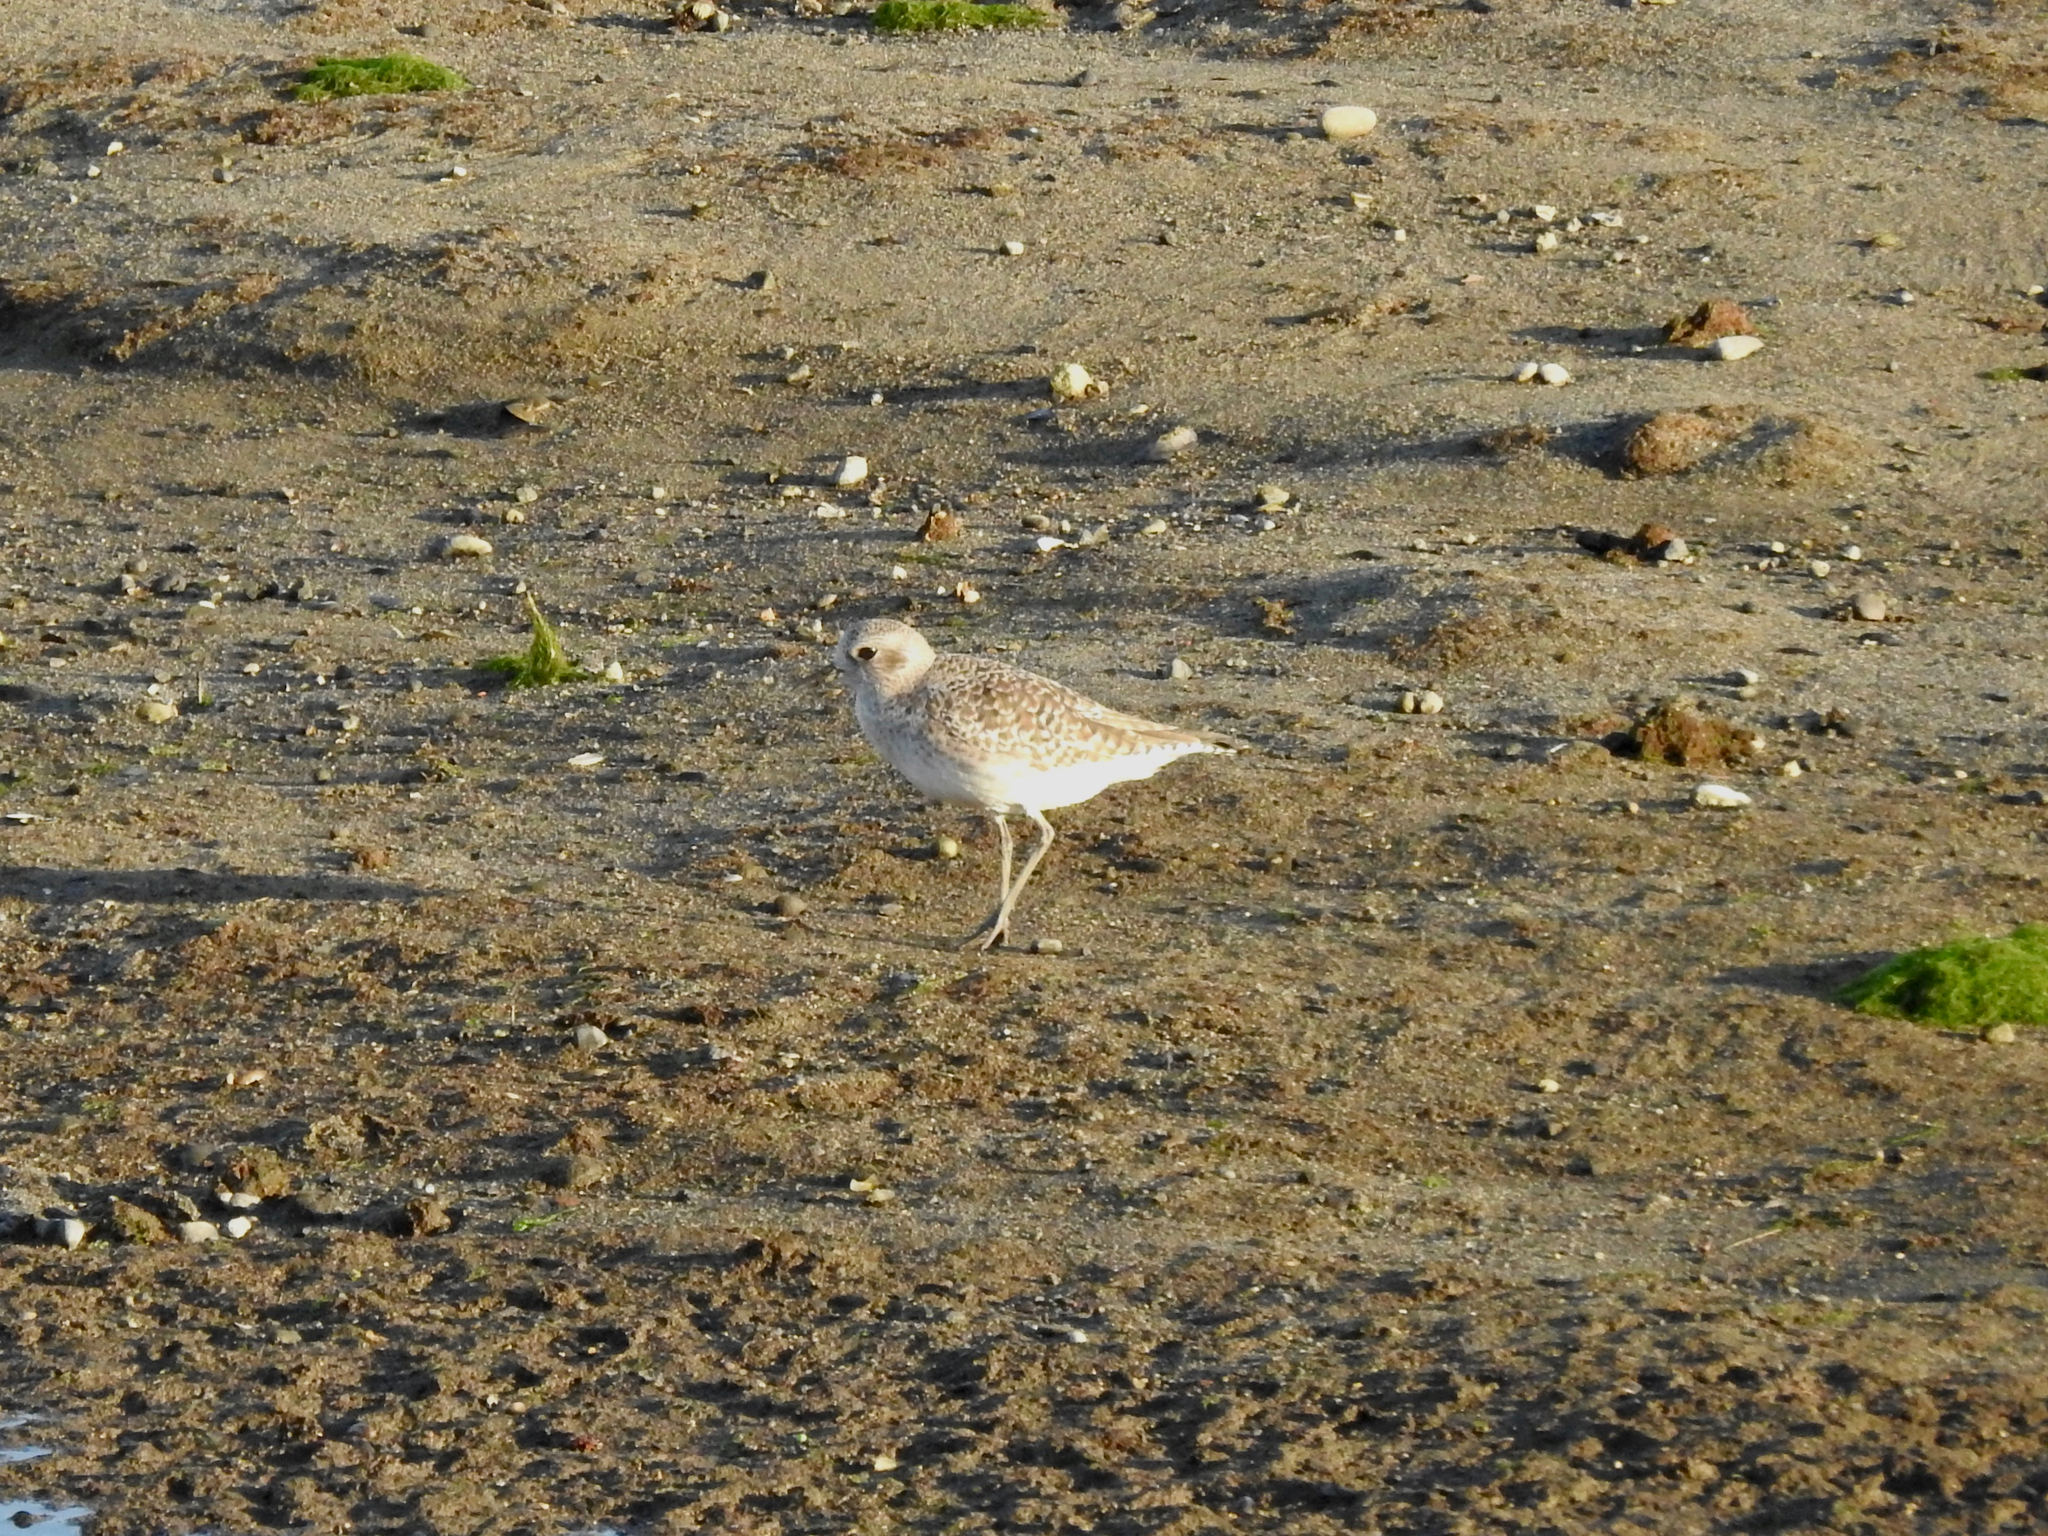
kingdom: Animalia
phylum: Chordata
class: Aves
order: Charadriiformes
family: Charadriidae
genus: Pluvialis
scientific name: Pluvialis squatarola
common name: Grey plover
